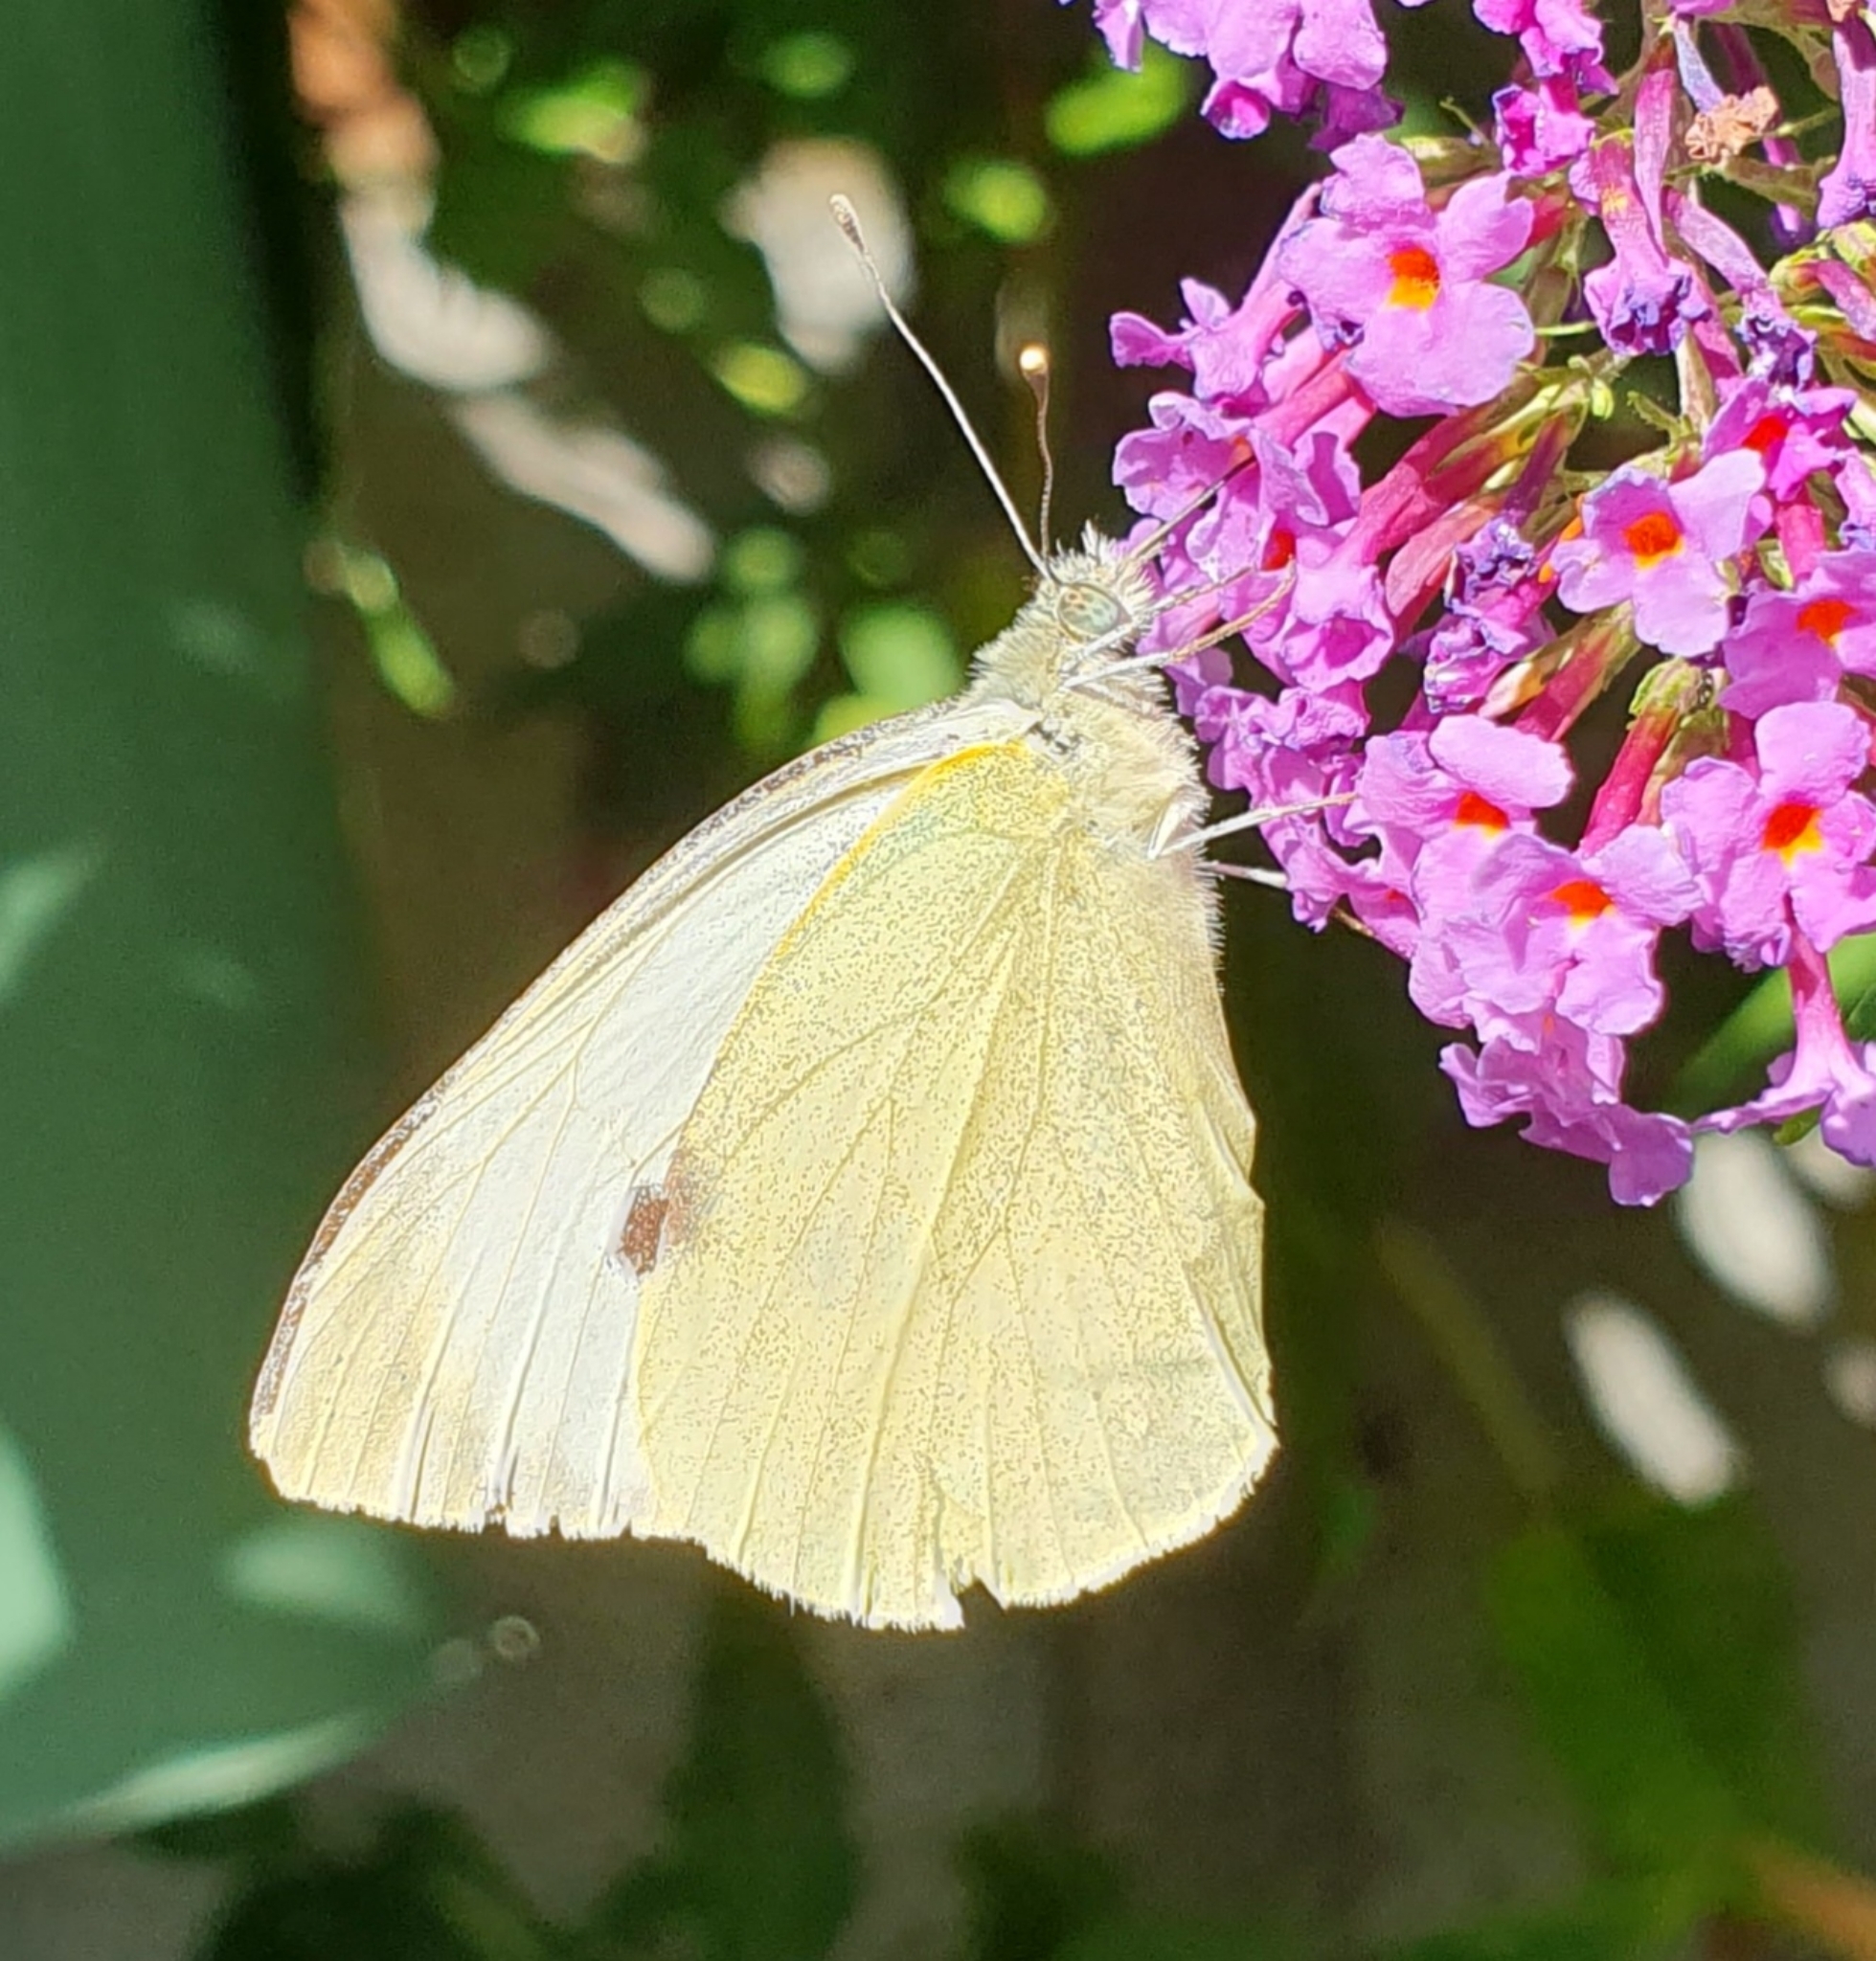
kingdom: Animalia
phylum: Arthropoda
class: Insecta
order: Lepidoptera
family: Pieridae
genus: Pieris
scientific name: Pieris brassicae
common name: Large white
